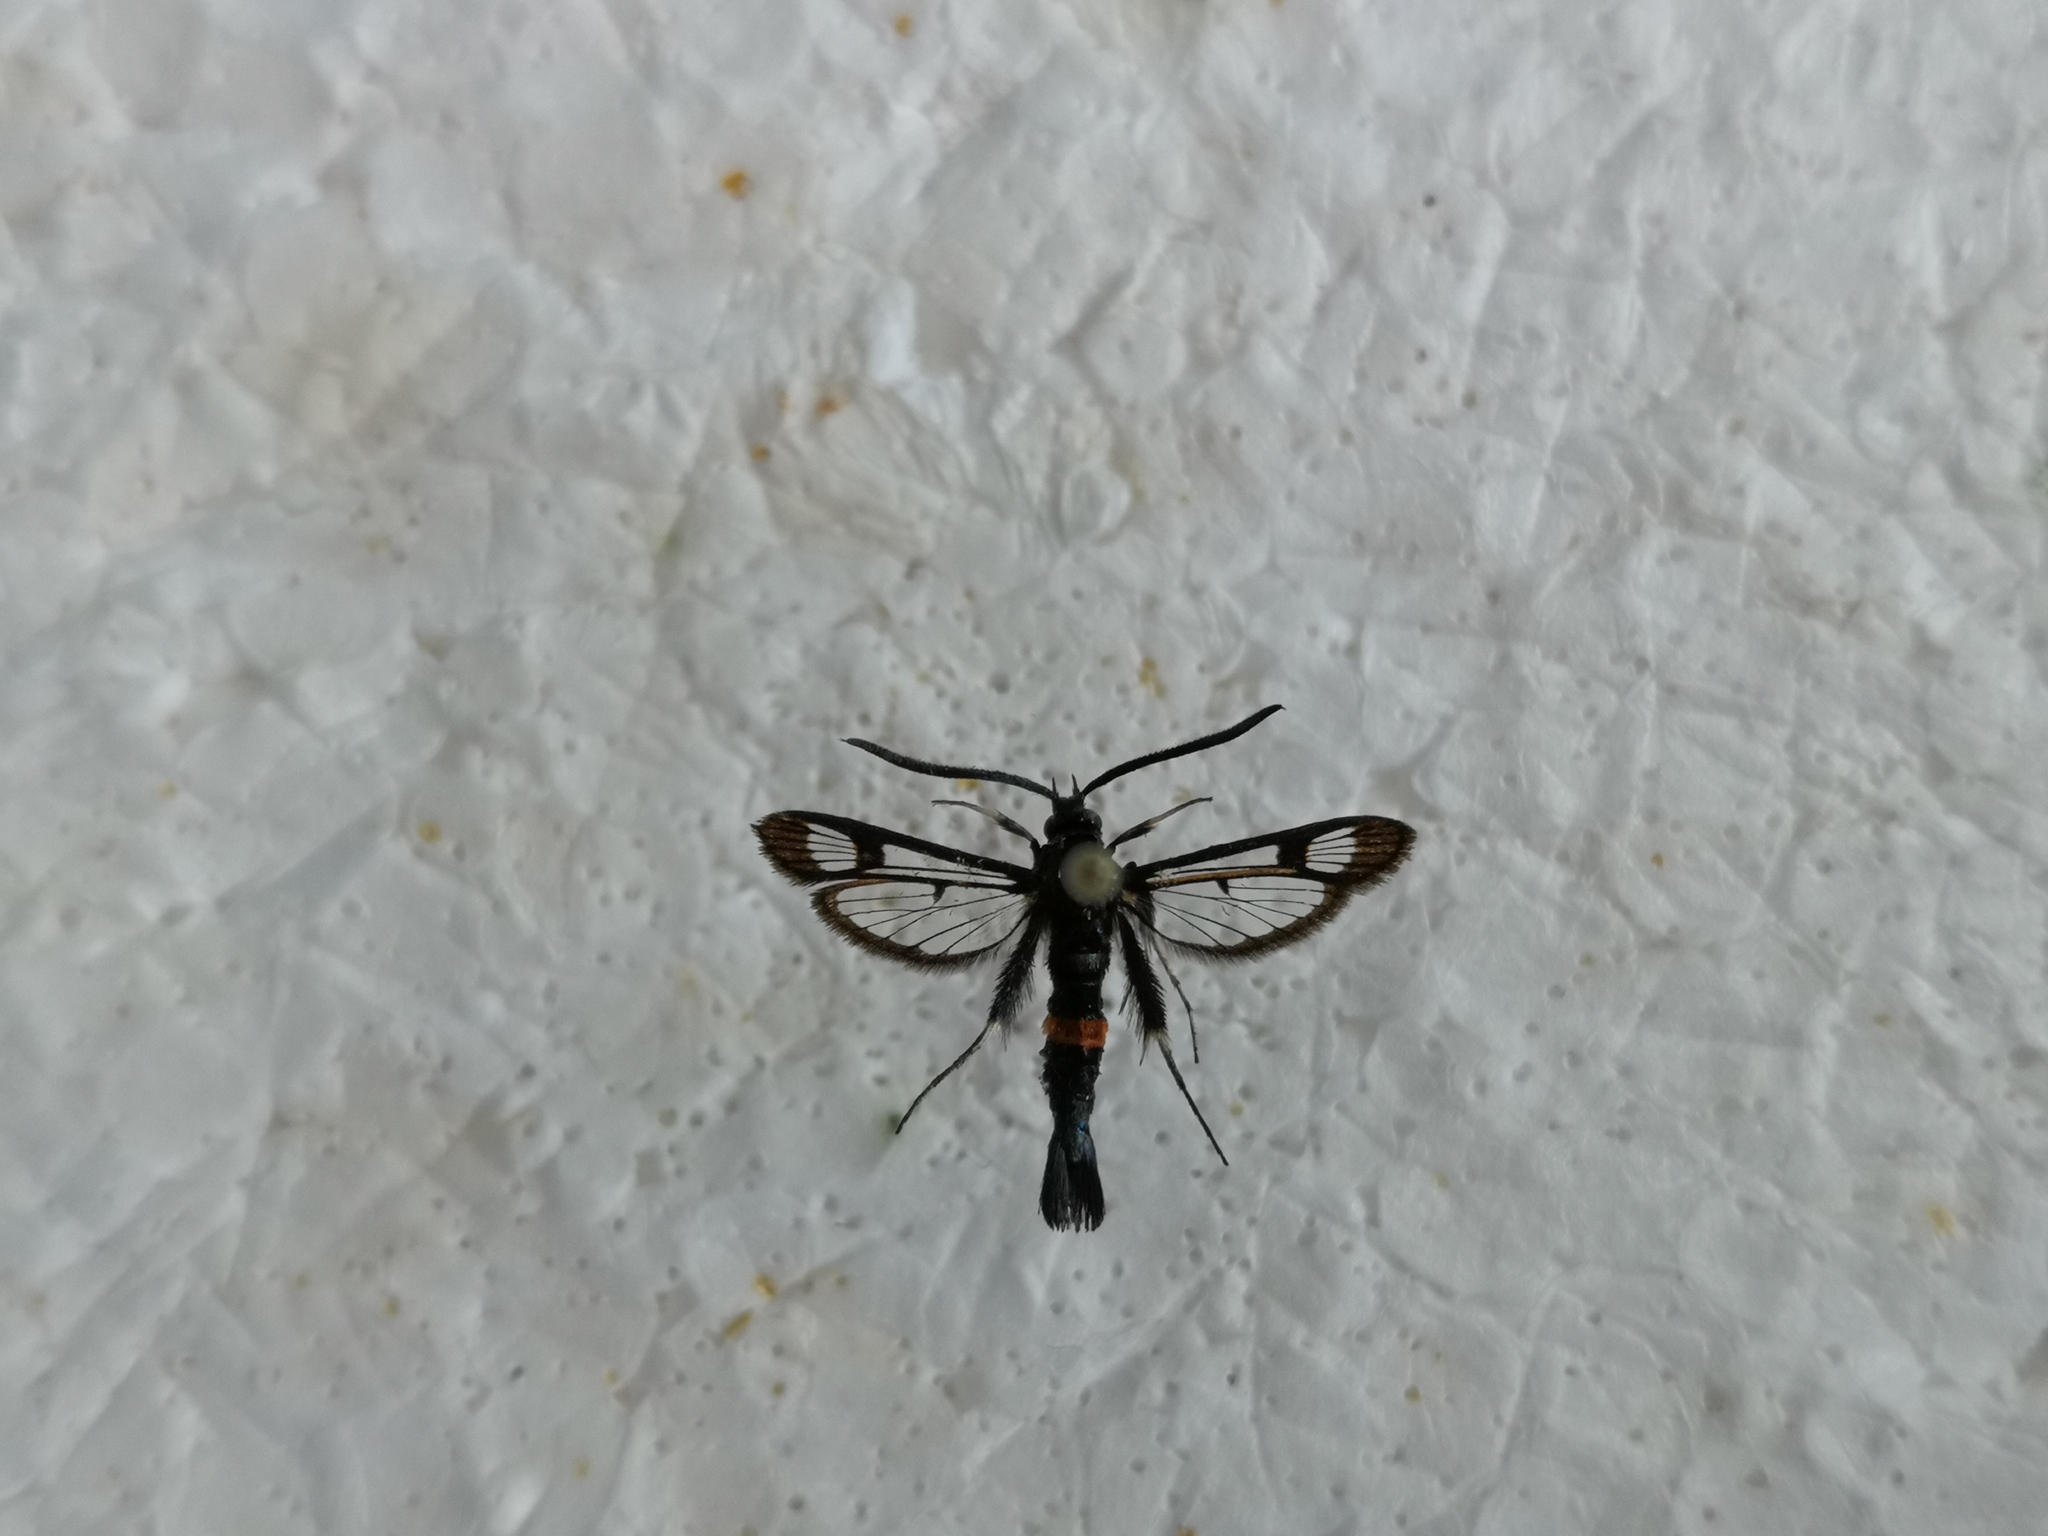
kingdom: Animalia
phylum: Arthropoda
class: Insecta
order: Lepidoptera
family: Sesiidae
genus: Synanthedon
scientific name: Synanthedon myopaeformis
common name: Red-belted clearwing
